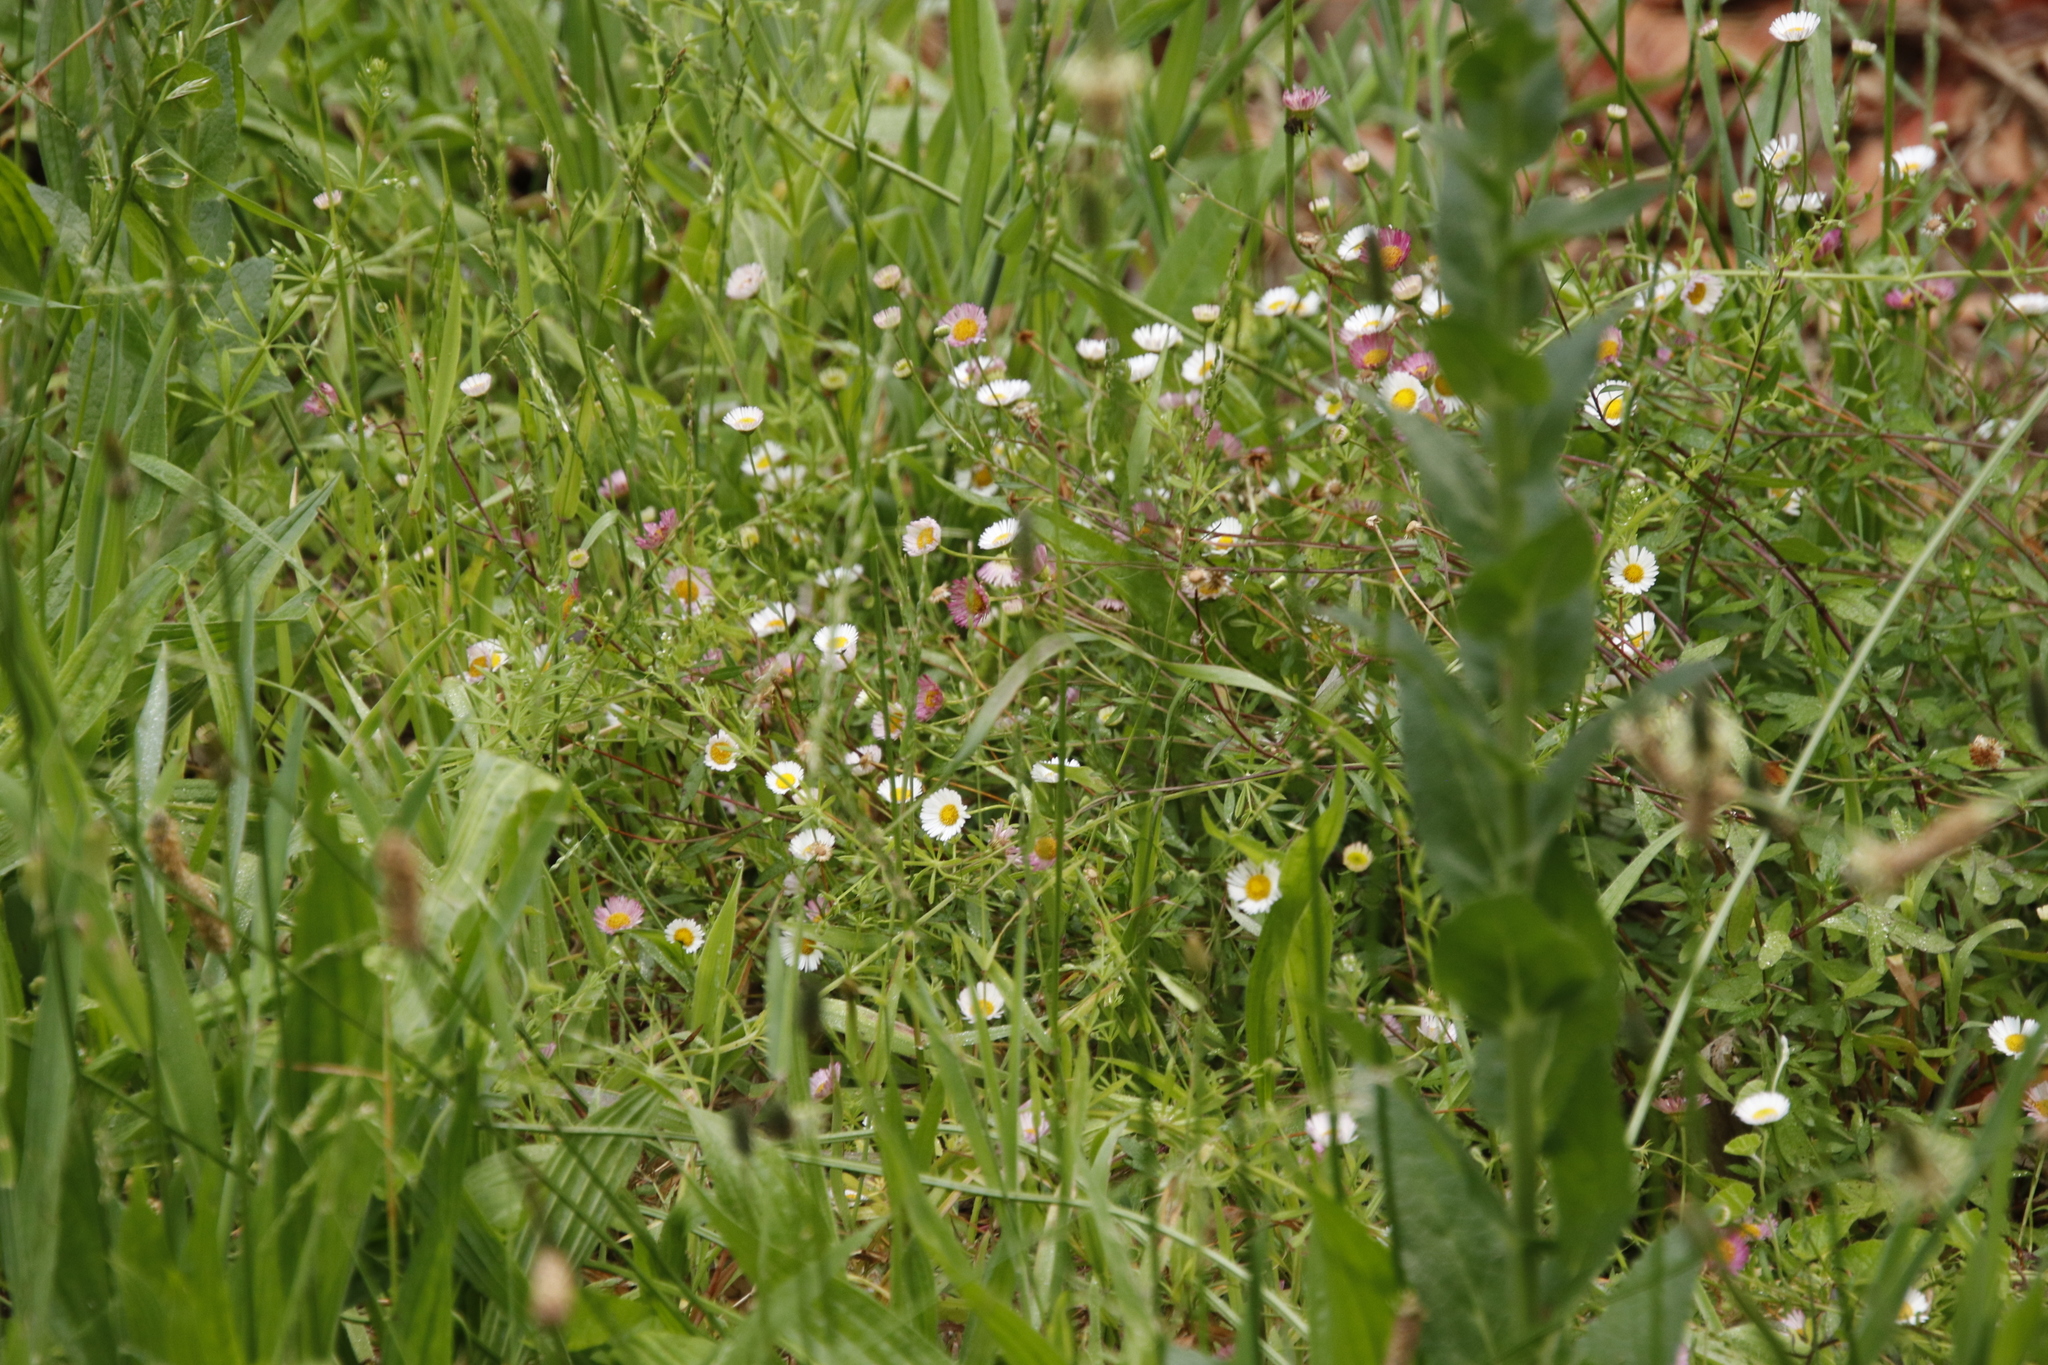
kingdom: Plantae
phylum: Tracheophyta
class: Magnoliopsida
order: Asterales
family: Asteraceae
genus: Erigeron
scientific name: Erigeron karvinskianus
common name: Mexican fleabane
